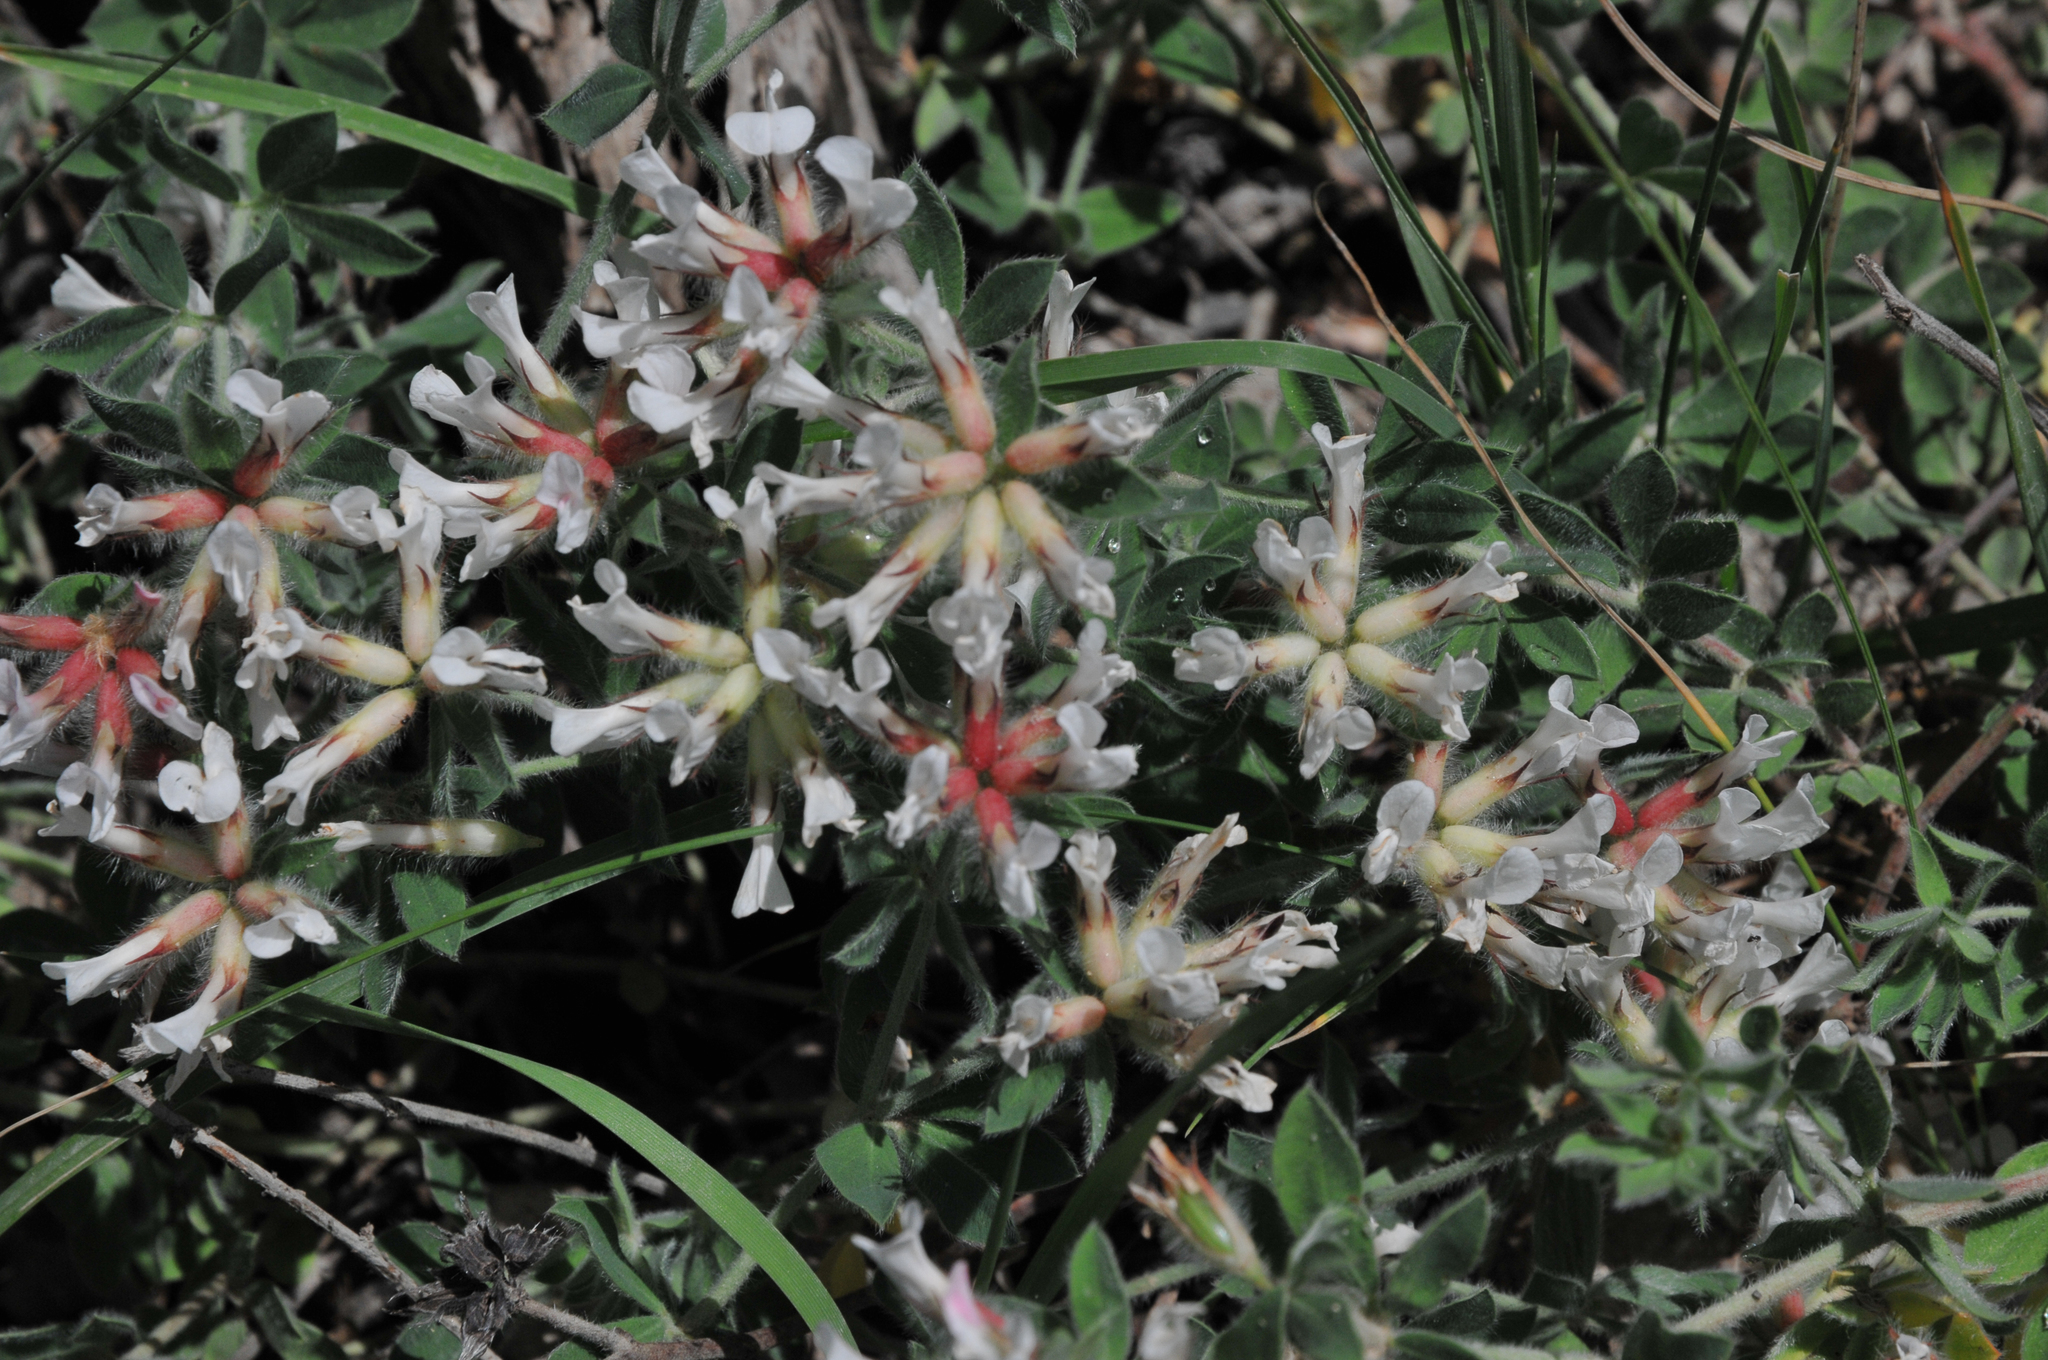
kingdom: Plantae
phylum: Tracheophyta
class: Magnoliopsida
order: Fabales
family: Fabaceae
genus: Lotus
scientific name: Lotus hirsutus
